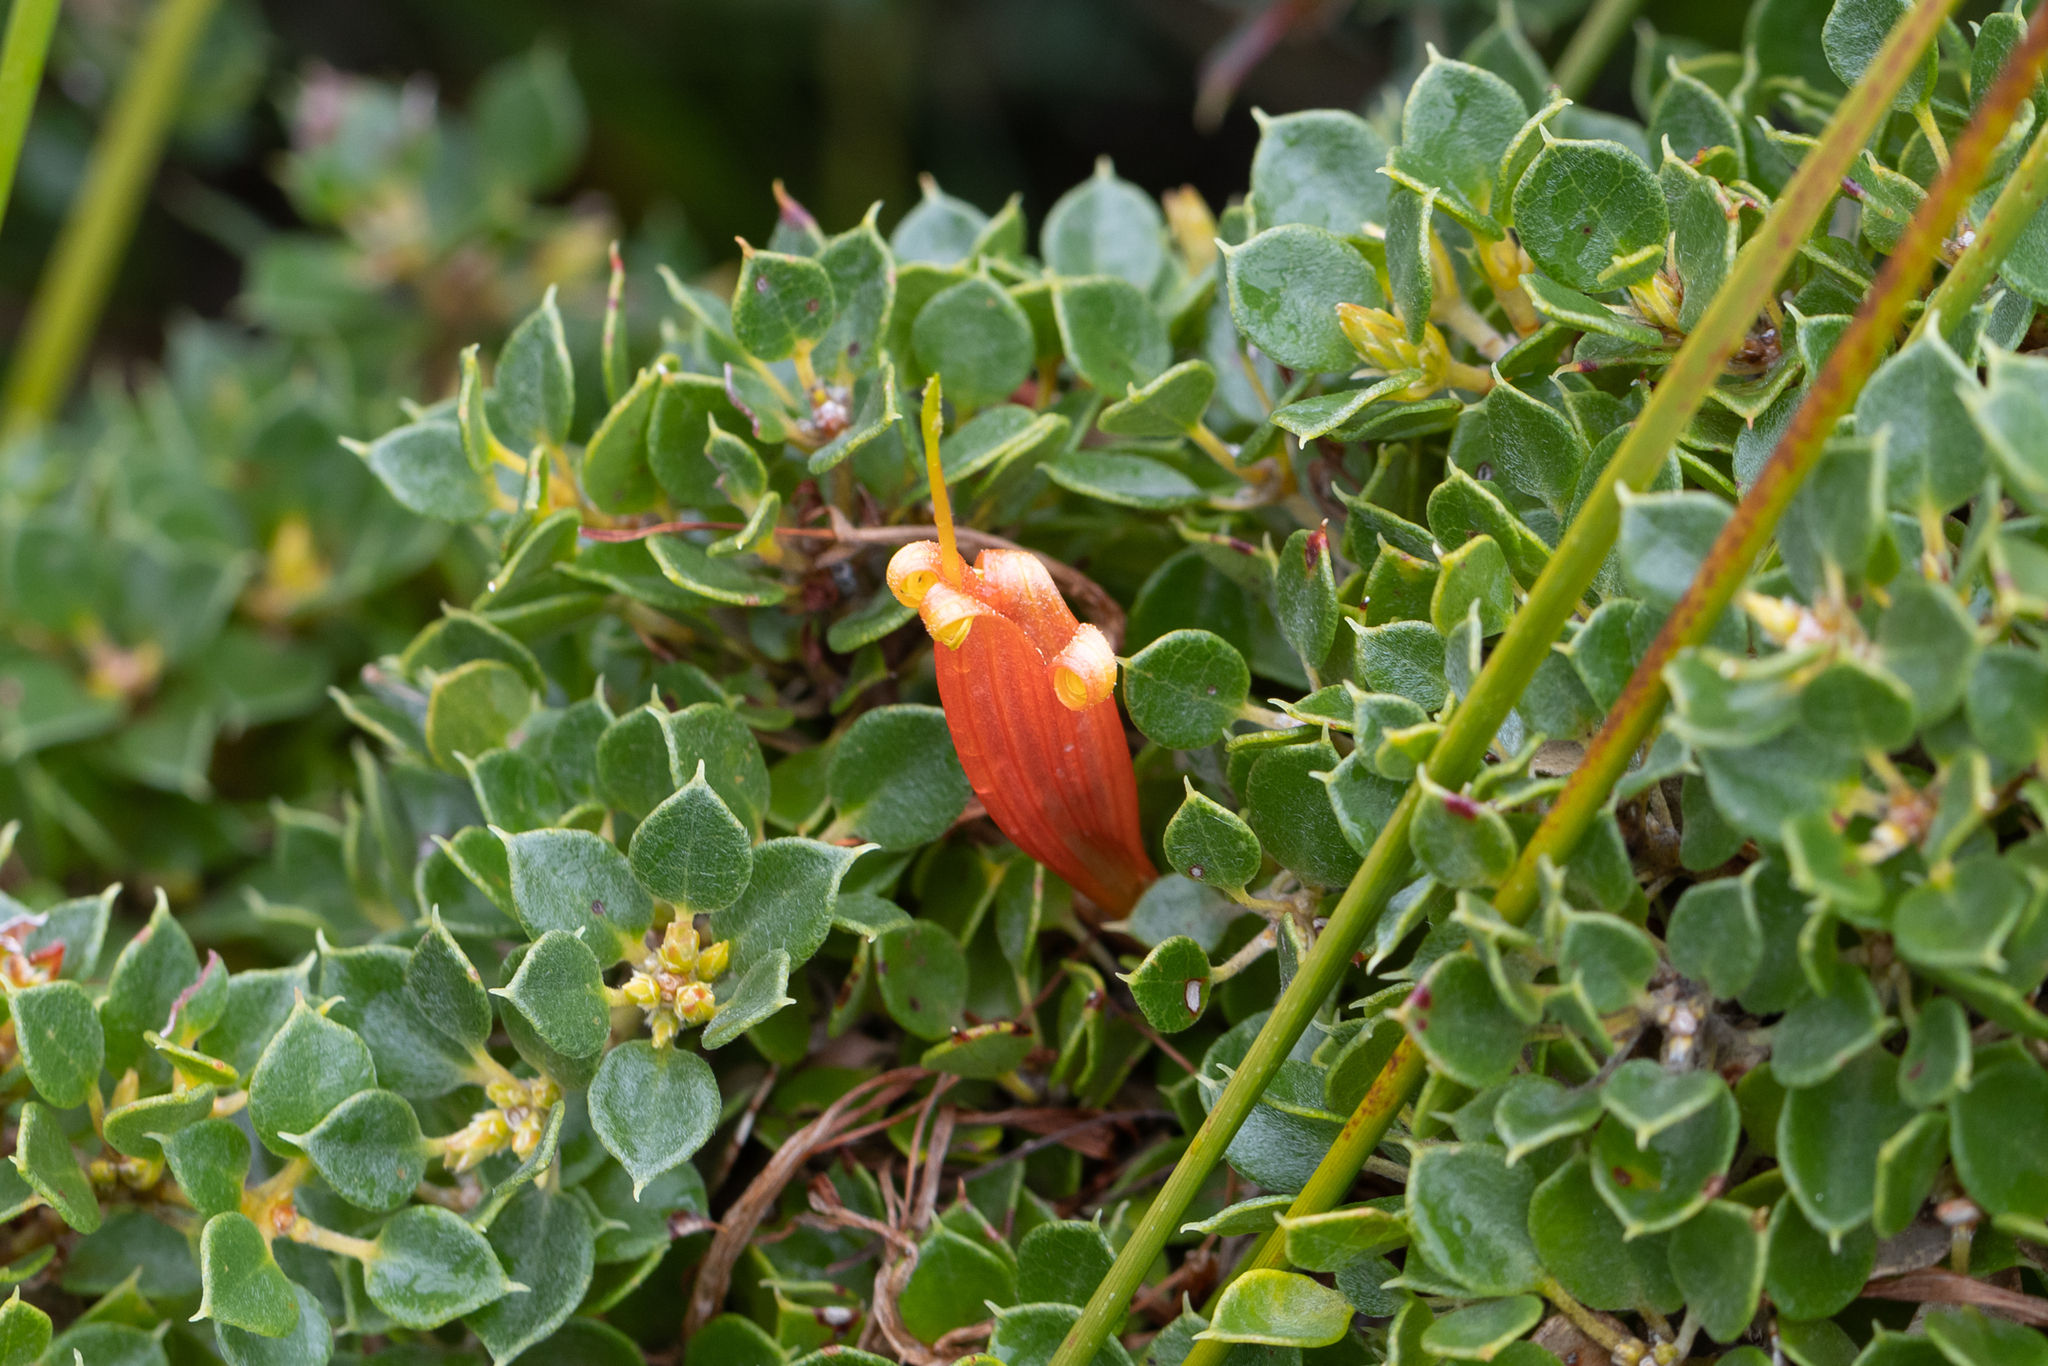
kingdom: Plantae
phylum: Tracheophyta
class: Magnoliopsida
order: Proteales
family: Proteaceae
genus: Lambertia
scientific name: Lambertia uniflora
